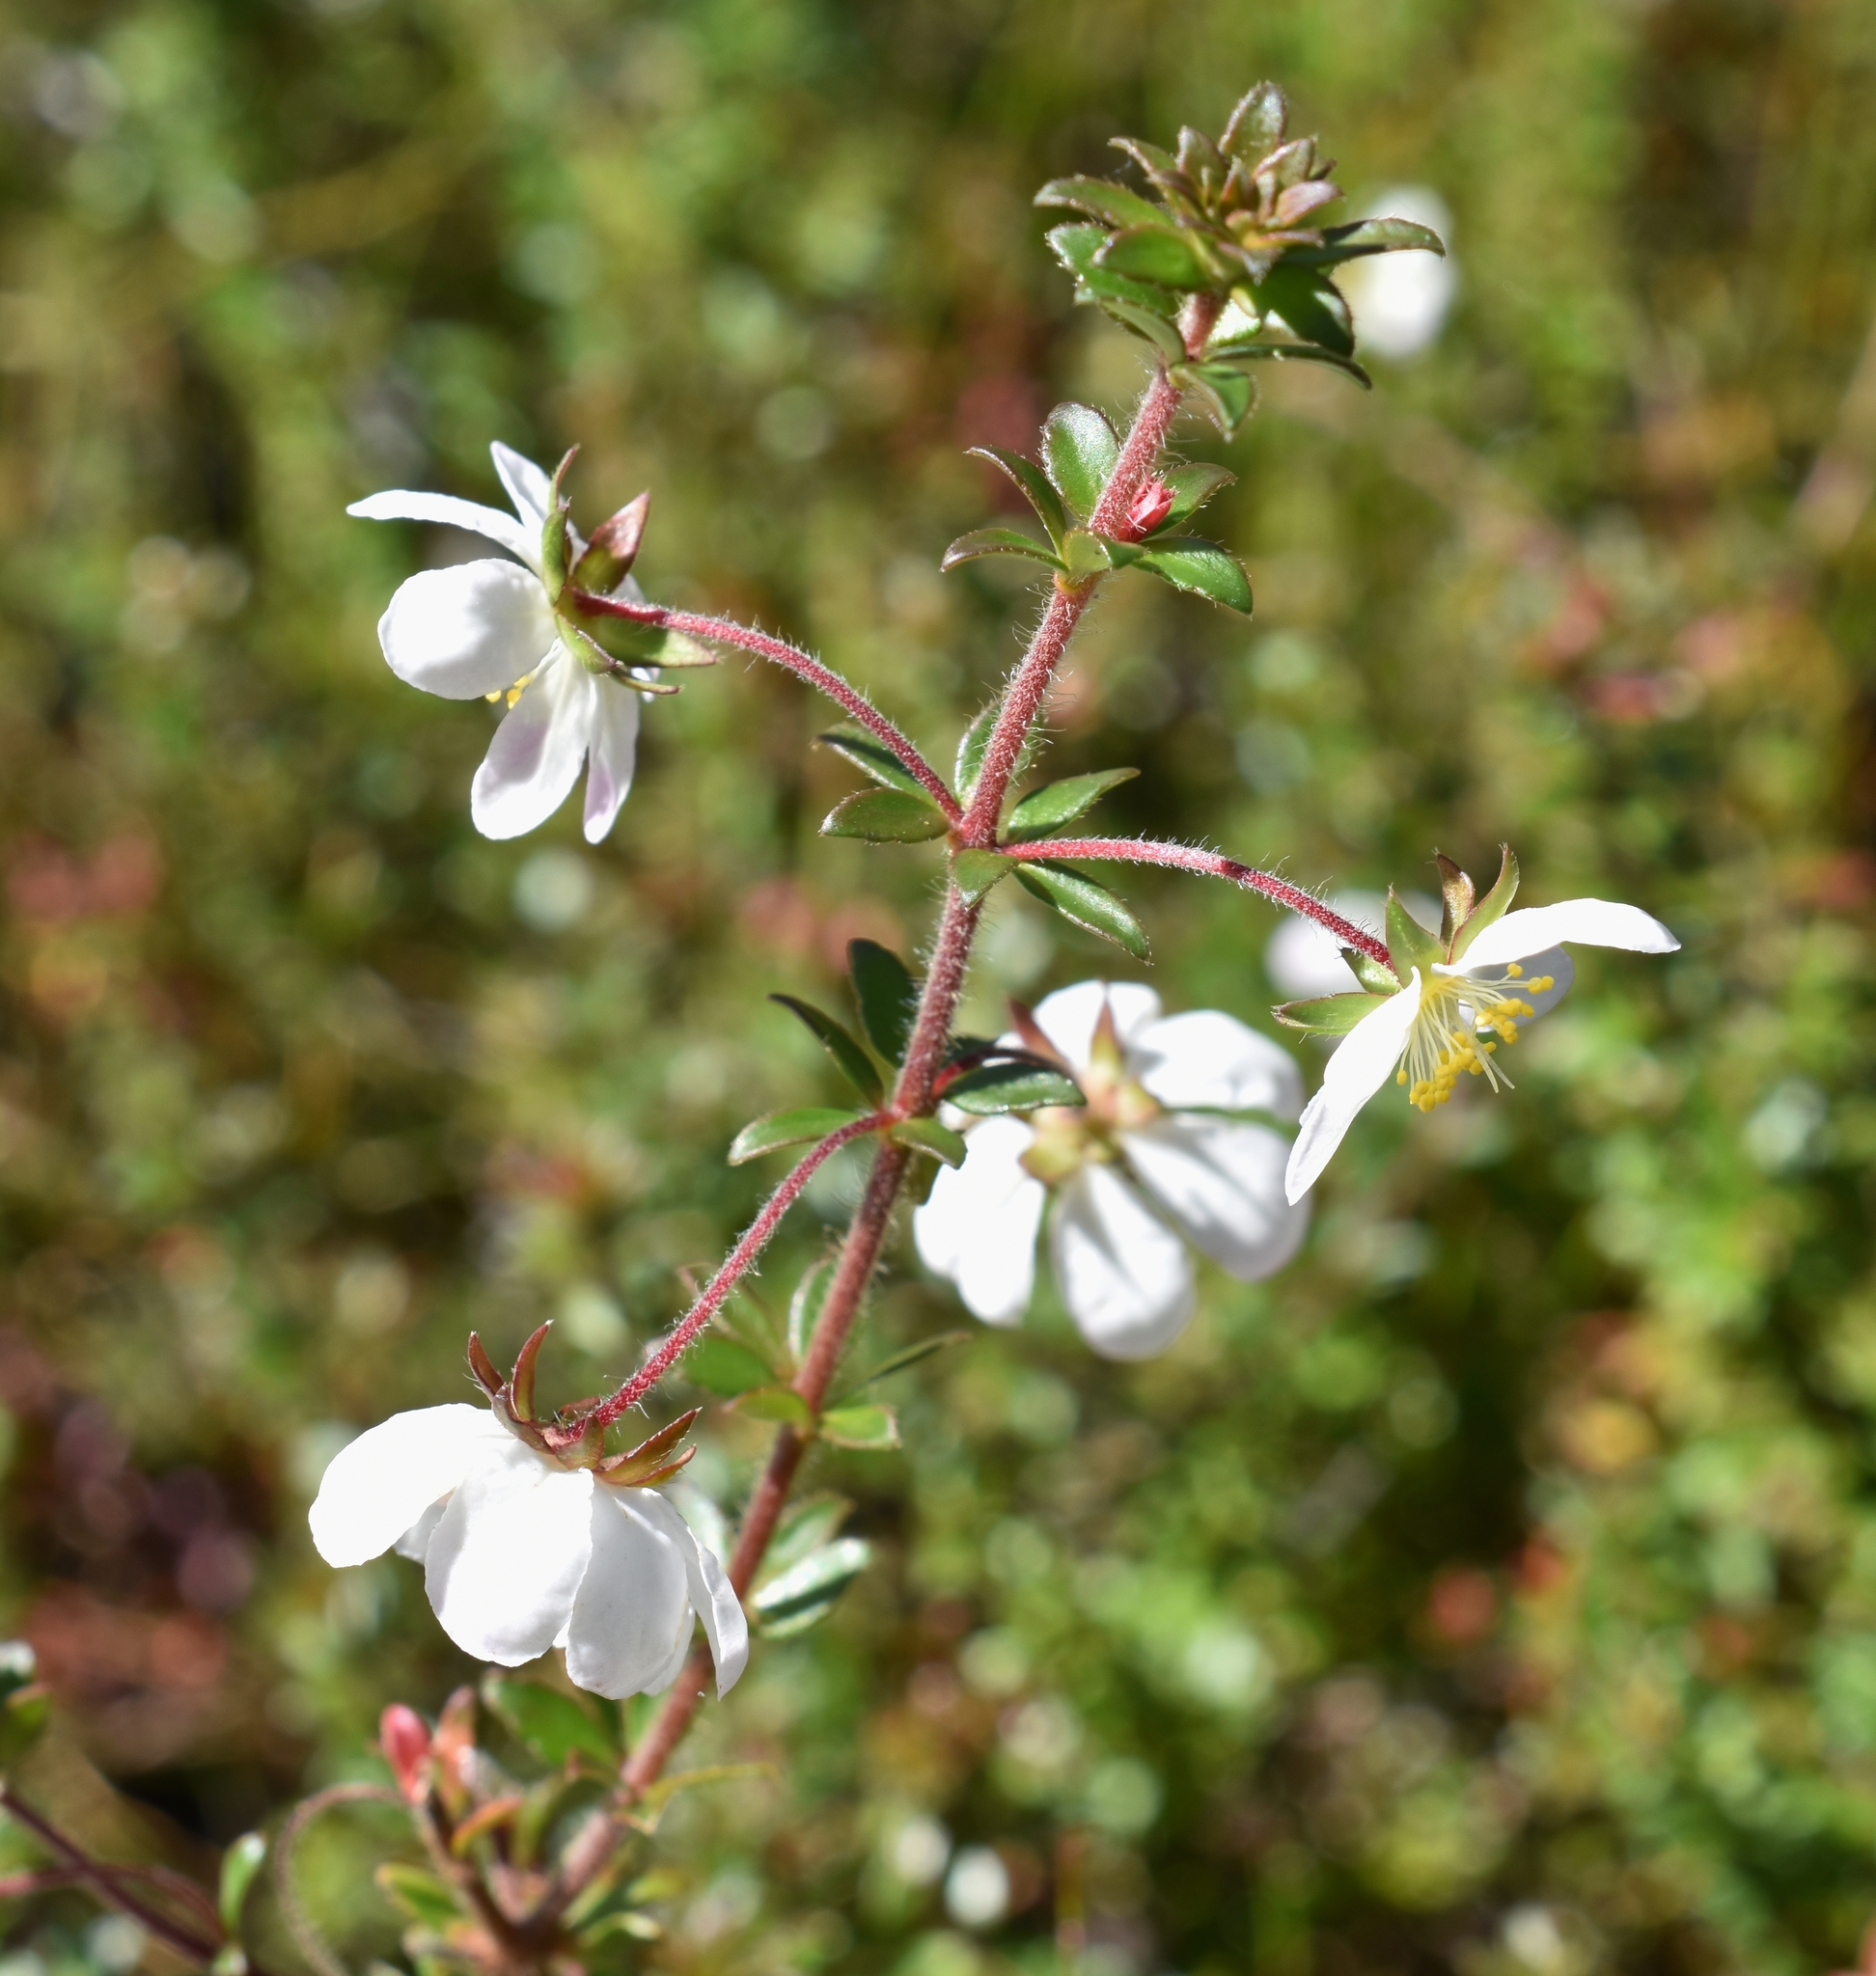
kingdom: Plantae
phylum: Tracheophyta
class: Magnoliopsida
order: Oxalidales
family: Cunoniaceae
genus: Bauera
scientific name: Bauera rubioides
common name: River-rose
